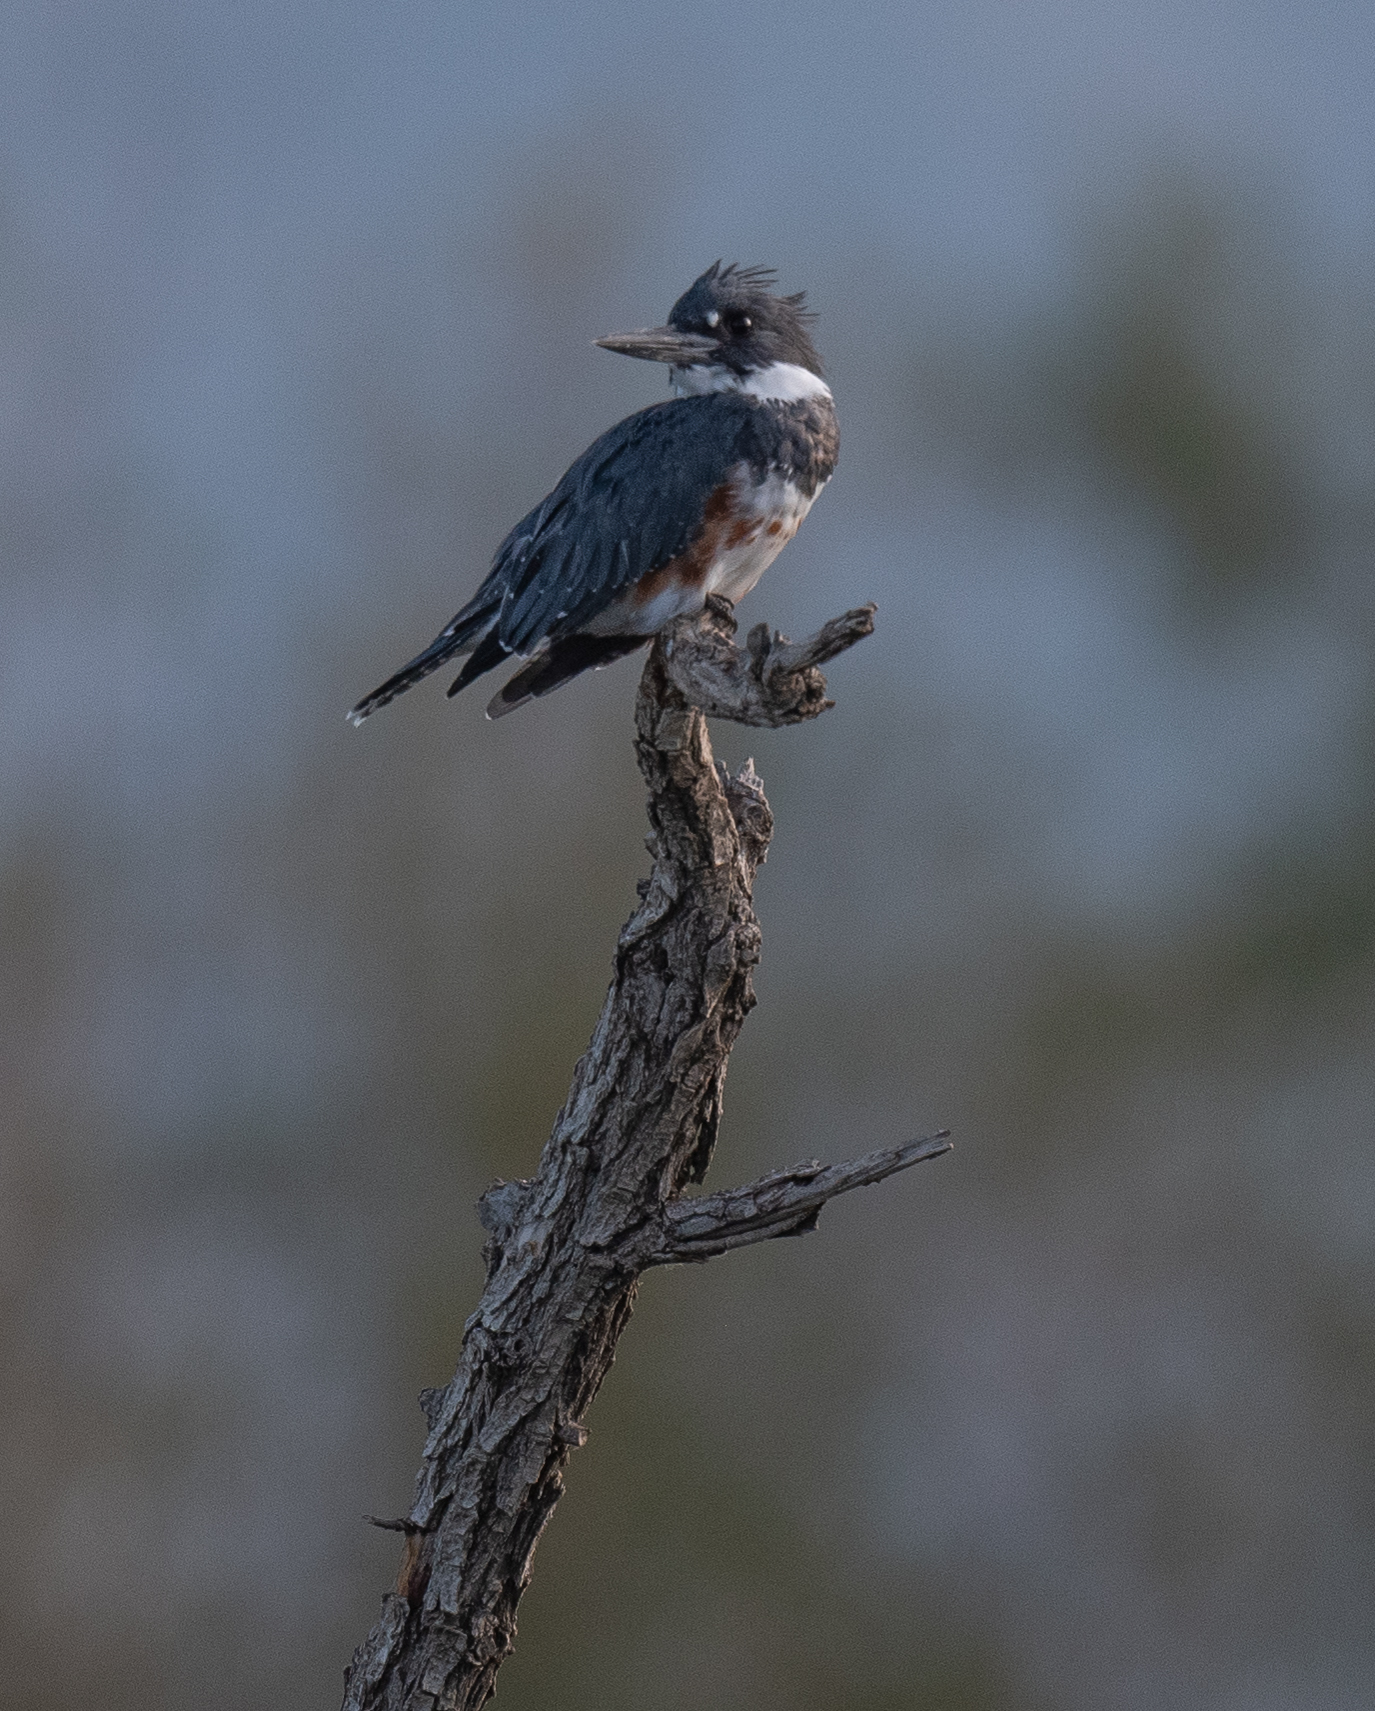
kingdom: Animalia
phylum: Chordata
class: Aves
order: Coraciiformes
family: Alcedinidae
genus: Megaceryle
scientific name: Megaceryle alcyon
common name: Belted kingfisher
